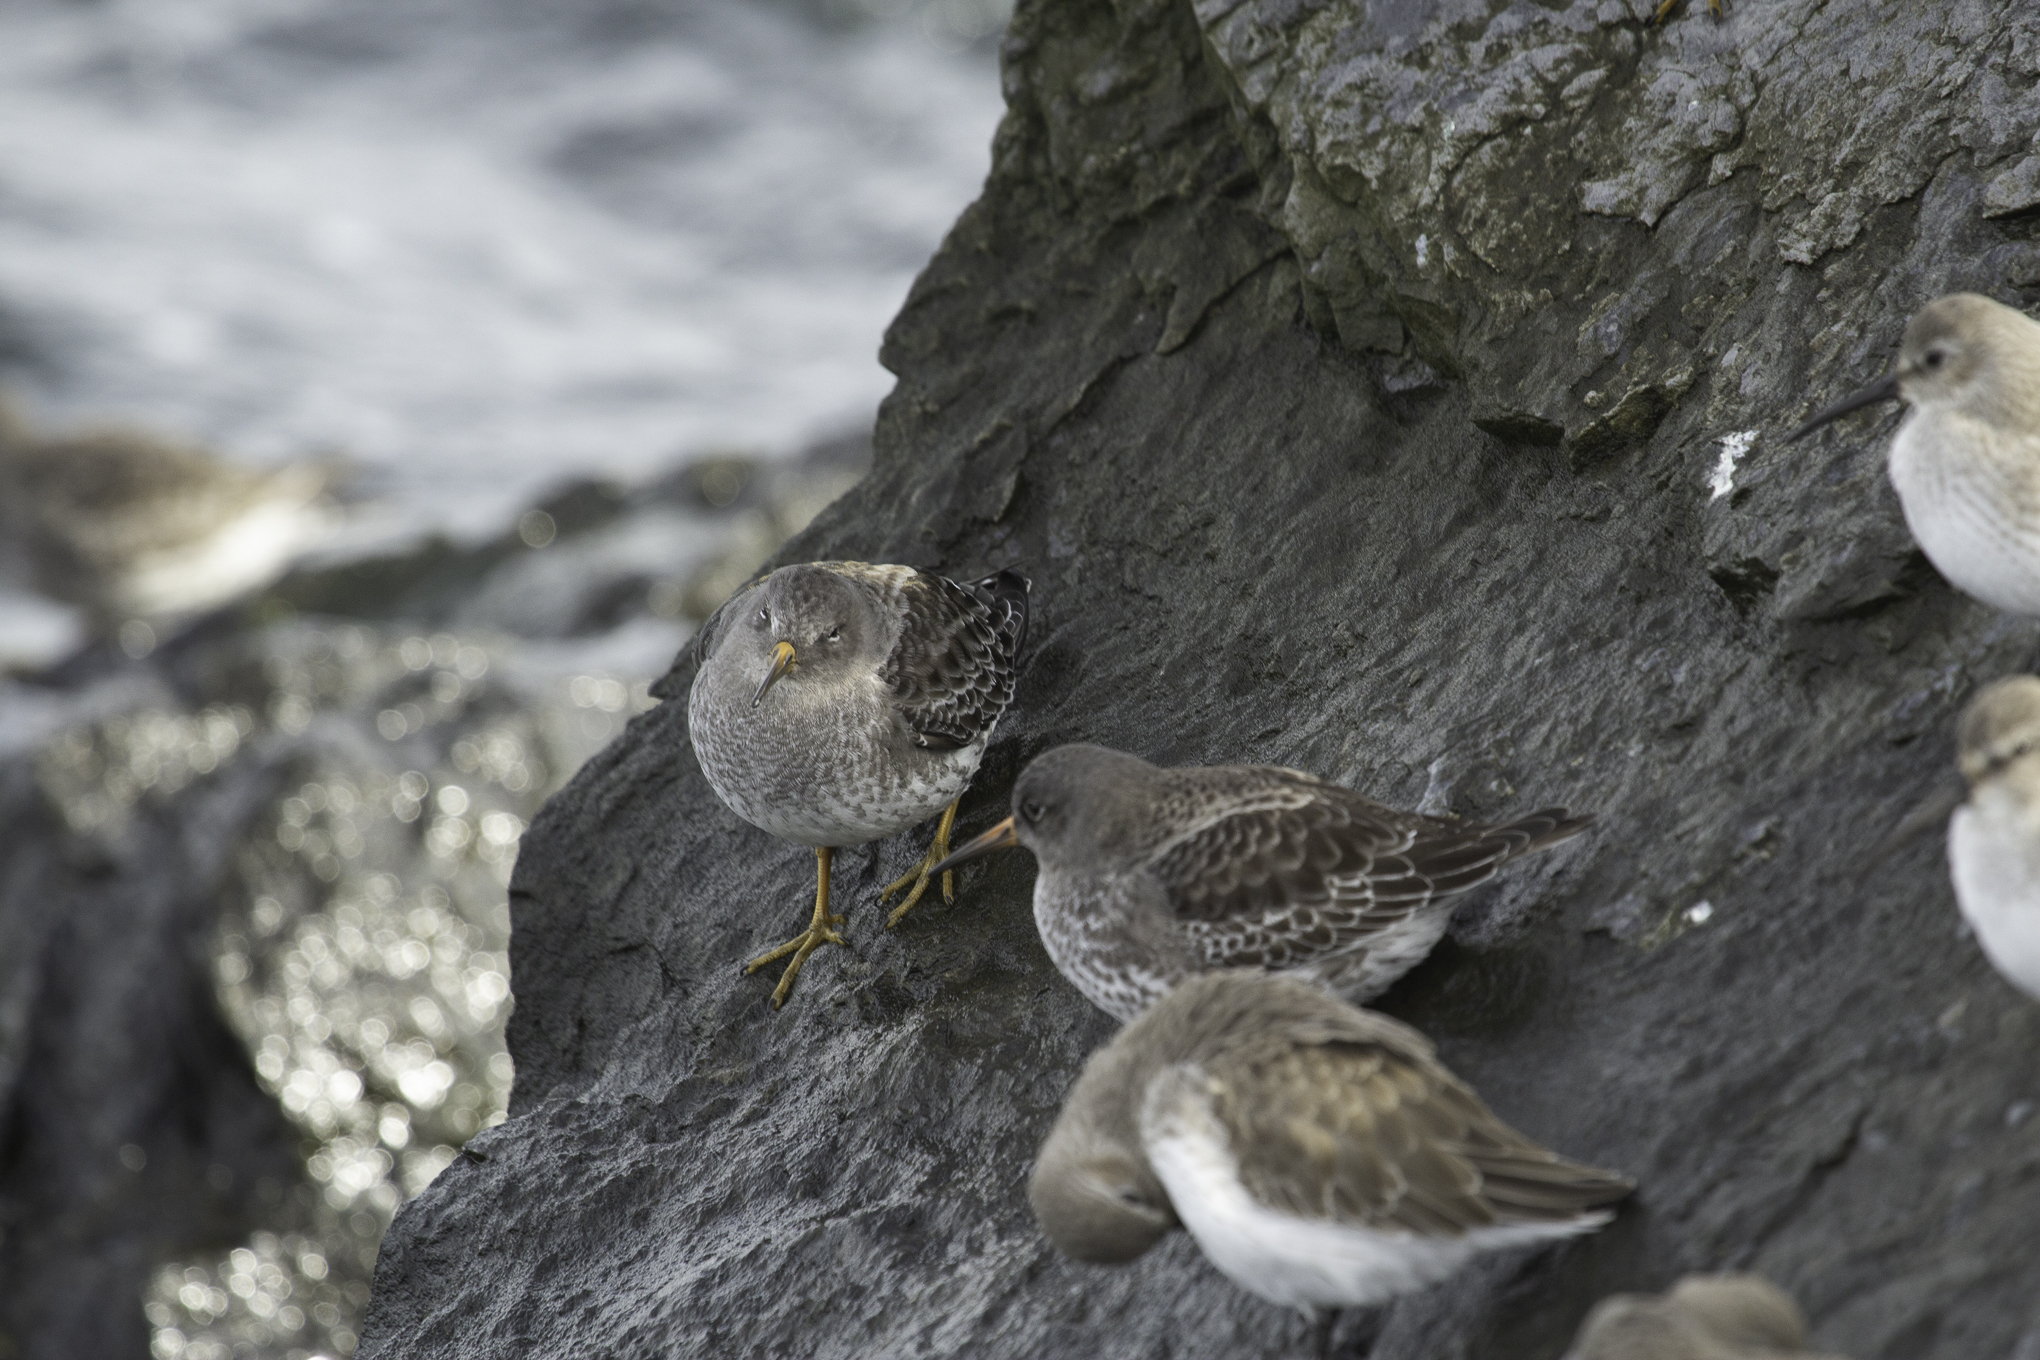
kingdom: Animalia
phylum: Chordata
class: Aves
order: Charadriiformes
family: Scolopacidae
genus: Calidris
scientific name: Calidris maritima
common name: Purple sandpiper
